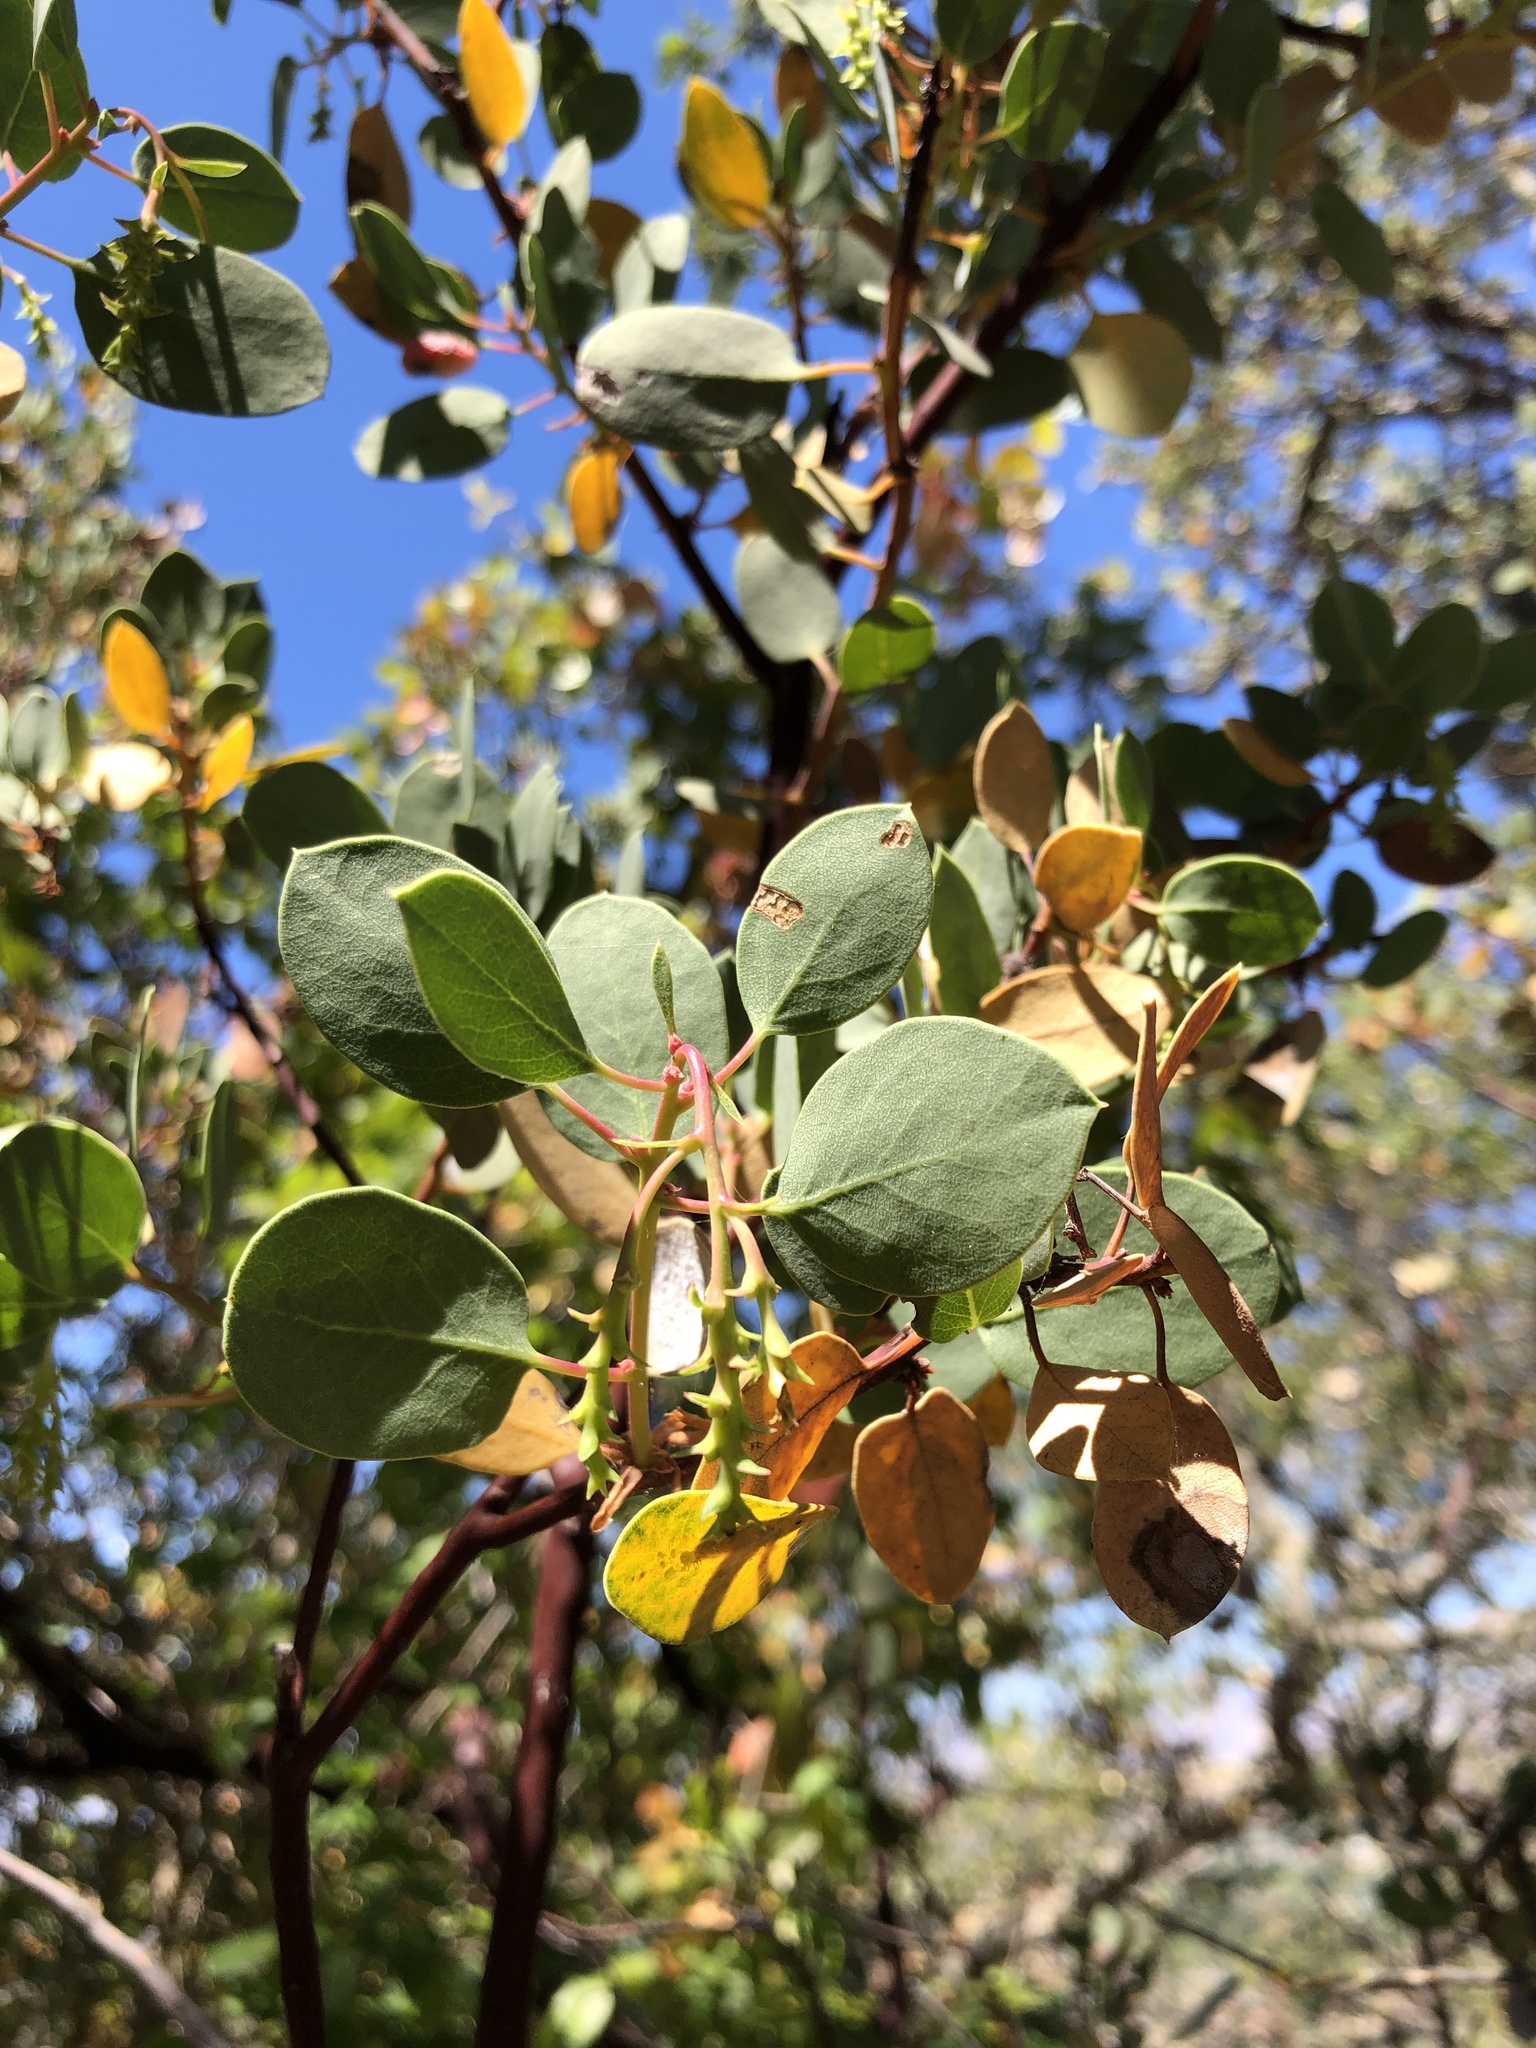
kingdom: Plantae
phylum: Tracheophyta
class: Magnoliopsida
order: Ericales
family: Ericaceae
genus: Arctostaphylos
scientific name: Arctostaphylos glauca
